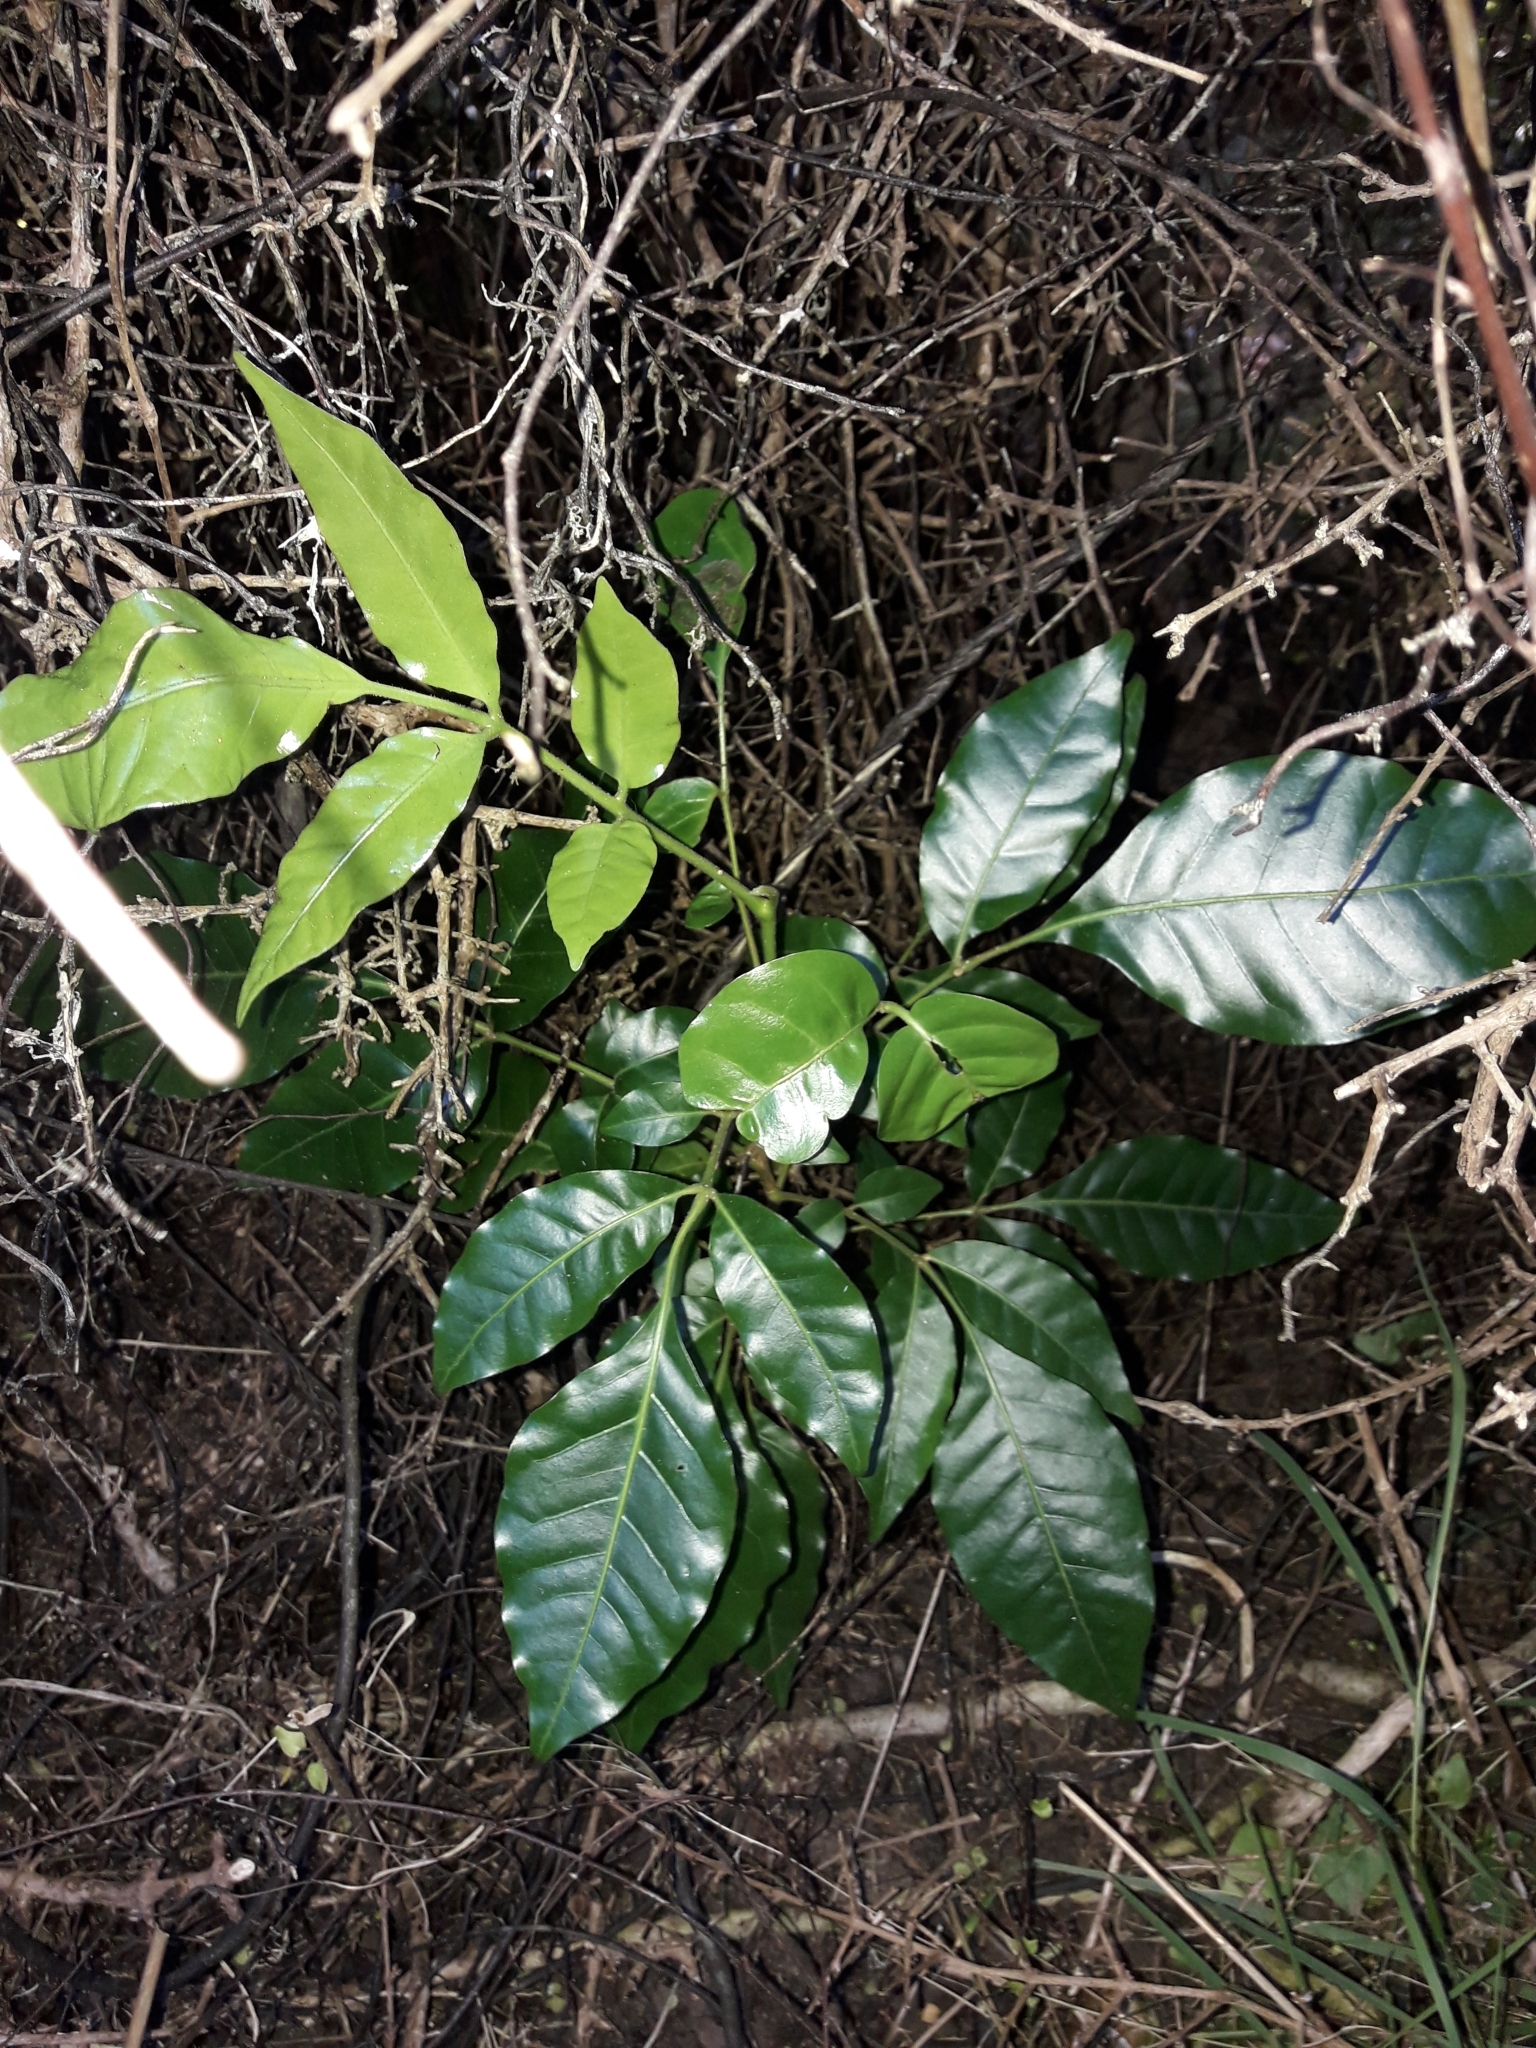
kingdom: Plantae
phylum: Tracheophyta
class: Magnoliopsida
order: Sapindales
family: Meliaceae
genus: Didymocheton
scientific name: Didymocheton spectabilis
